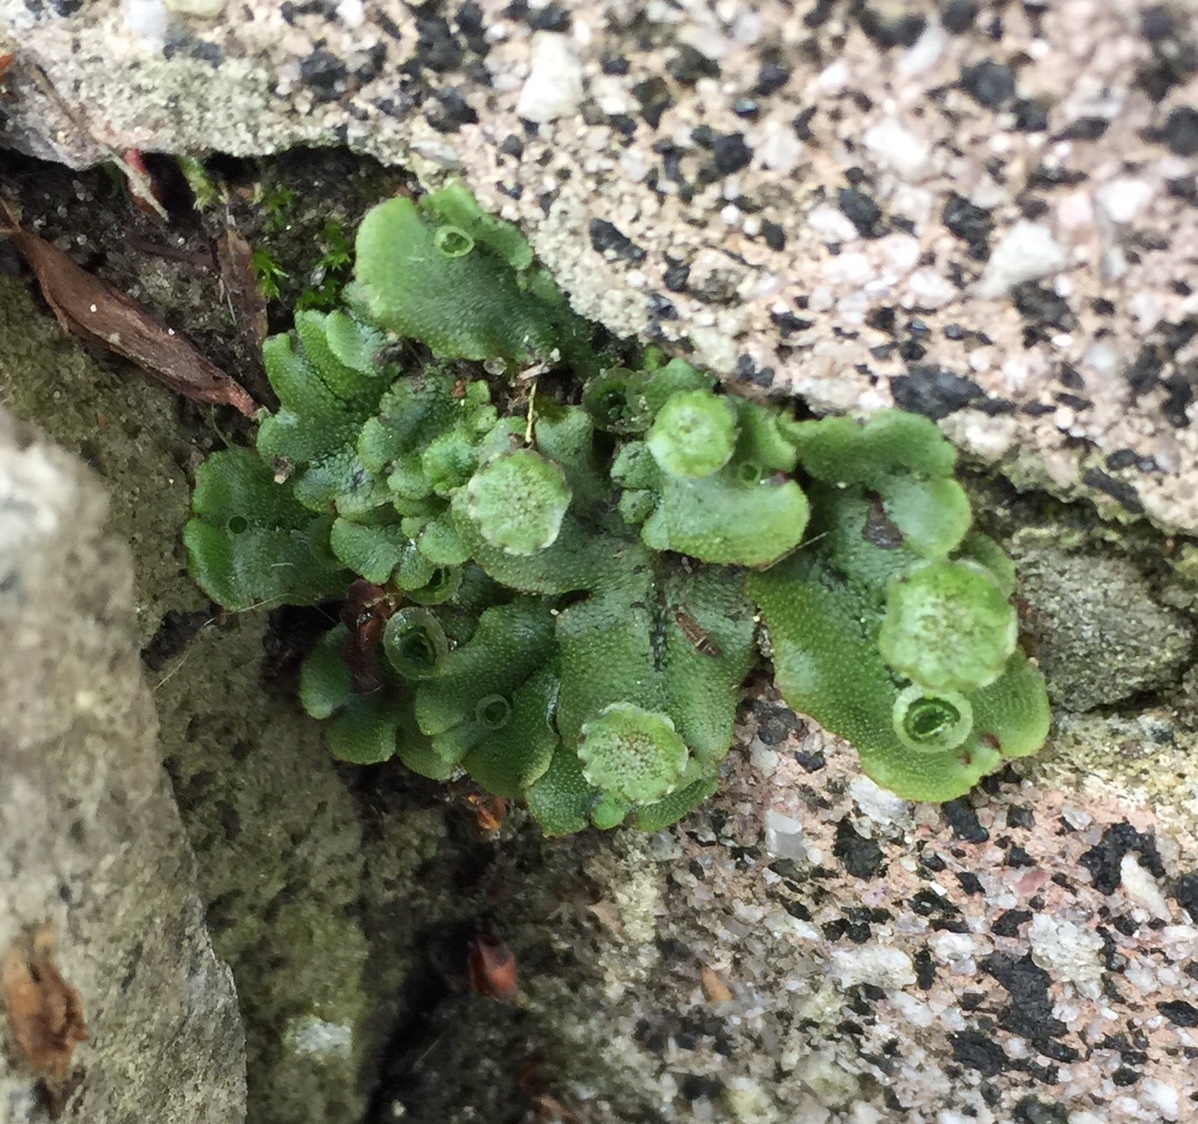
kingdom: Plantae
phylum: Marchantiophyta
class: Marchantiopsida
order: Marchantiales
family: Marchantiaceae
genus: Marchantia
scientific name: Marchantia polymorpha
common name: Common liverwort
